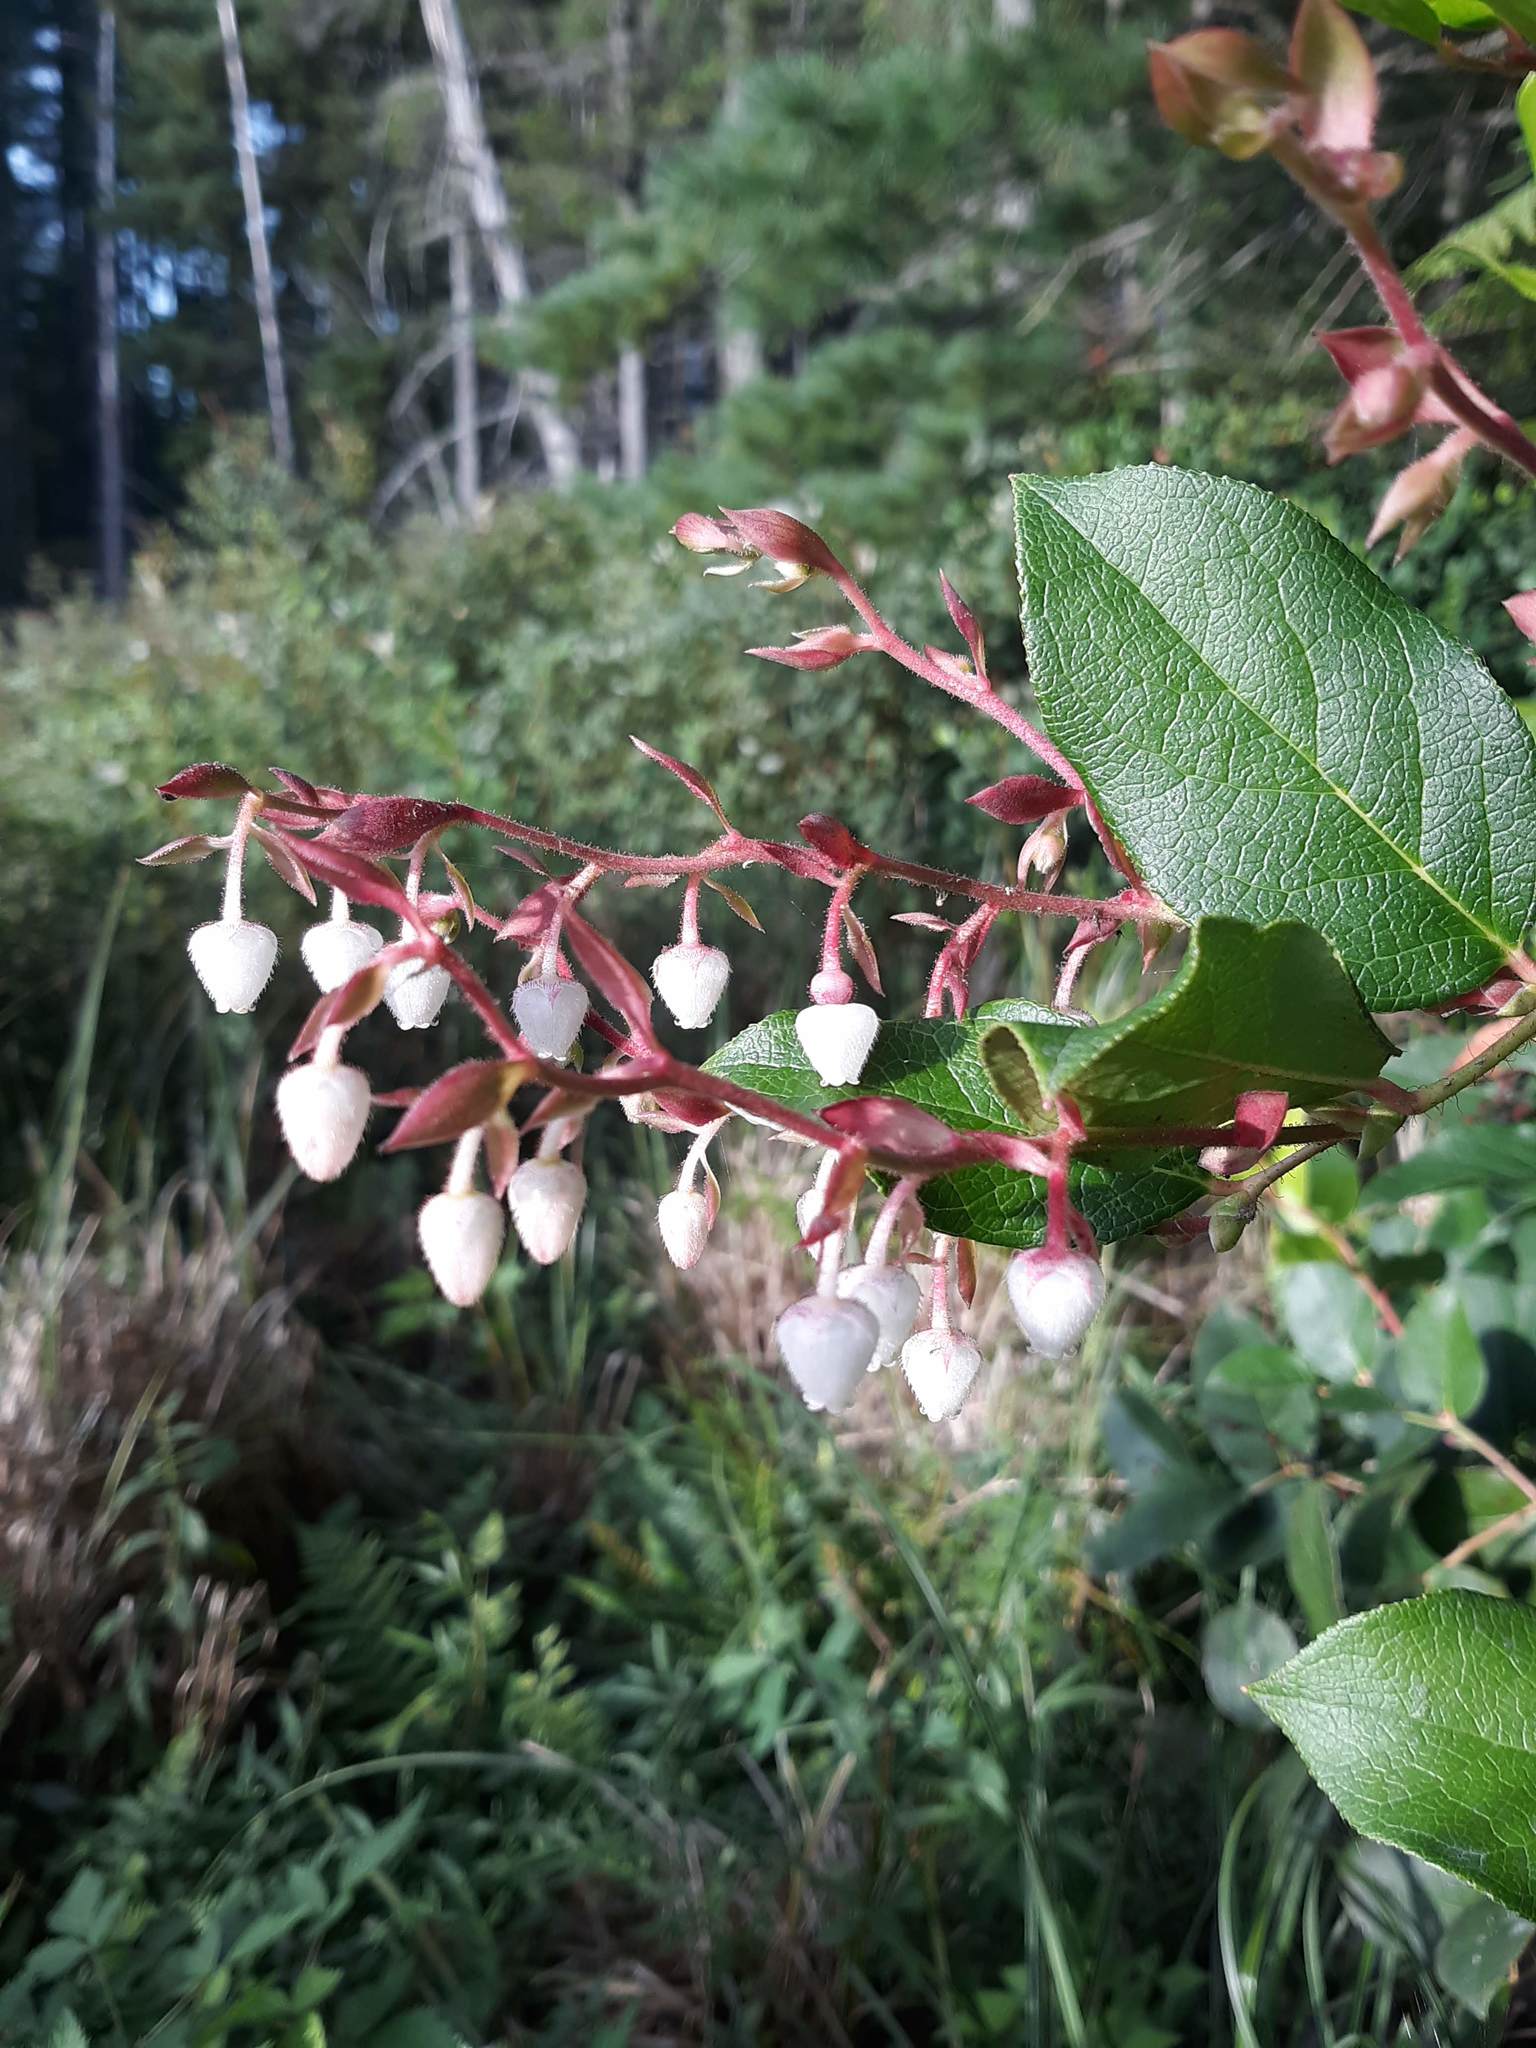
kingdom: Plantae
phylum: Tracheophyta
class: Magnoliopsida
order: Ericales
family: Ericaceae
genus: Gaultheria
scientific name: Gaultheria shallon
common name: Shallon
